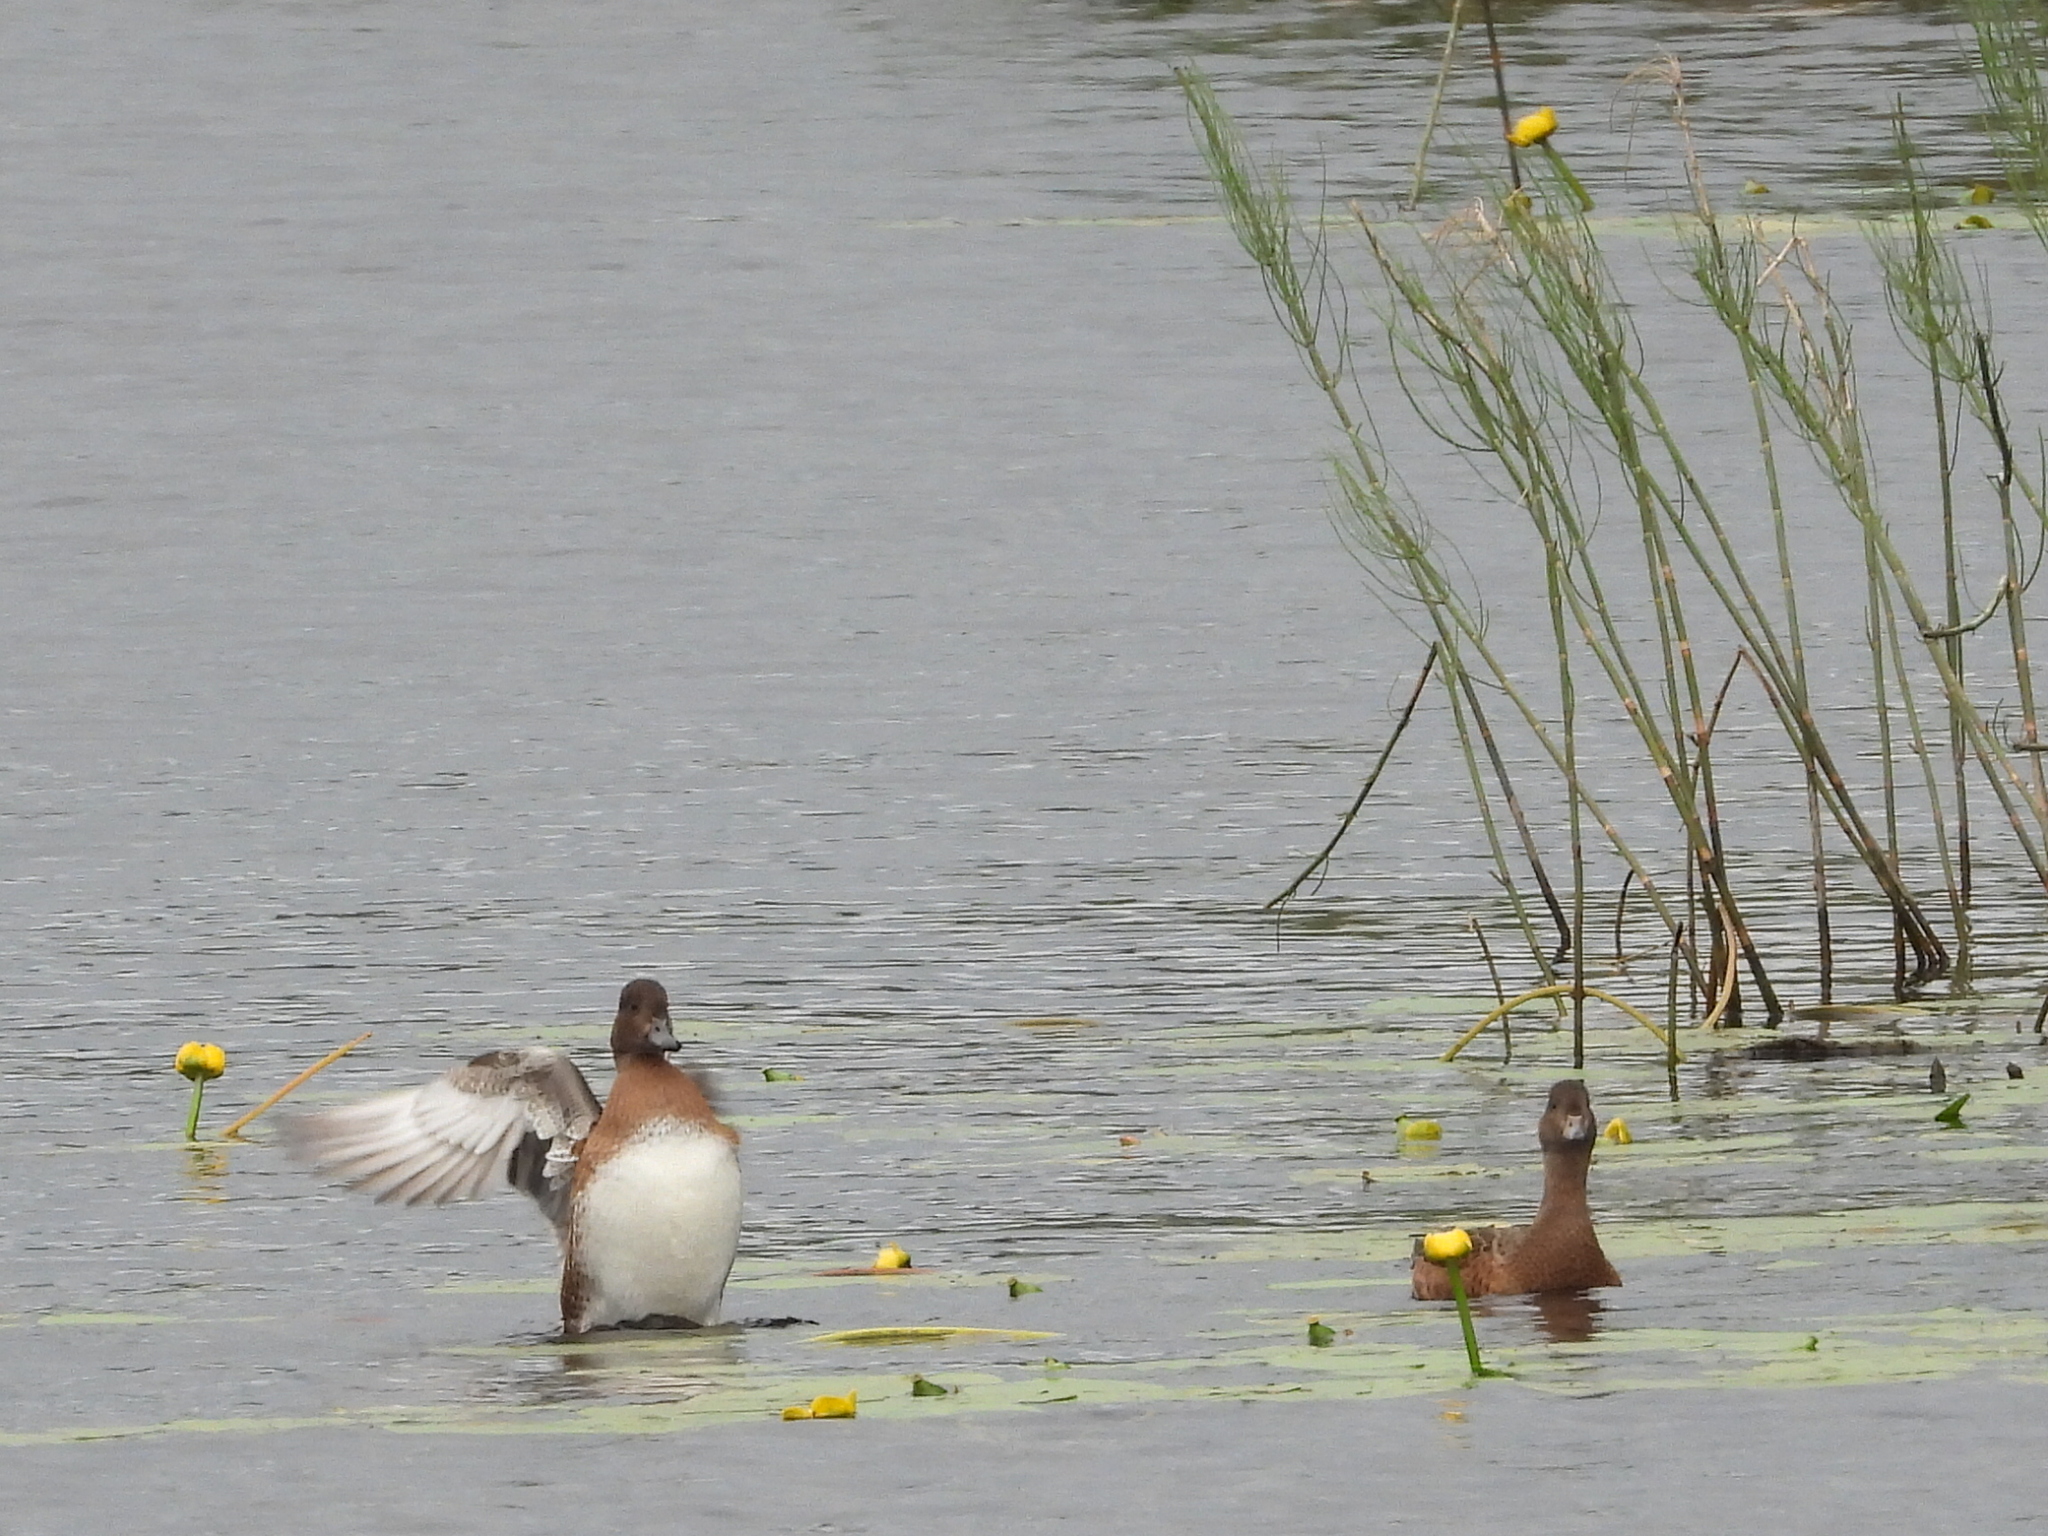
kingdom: Animalia
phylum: Chordata
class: Aves
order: Anseriformes
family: Anatidae
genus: Mareca
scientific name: Mareca penelope
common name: Eurasian wigeon
